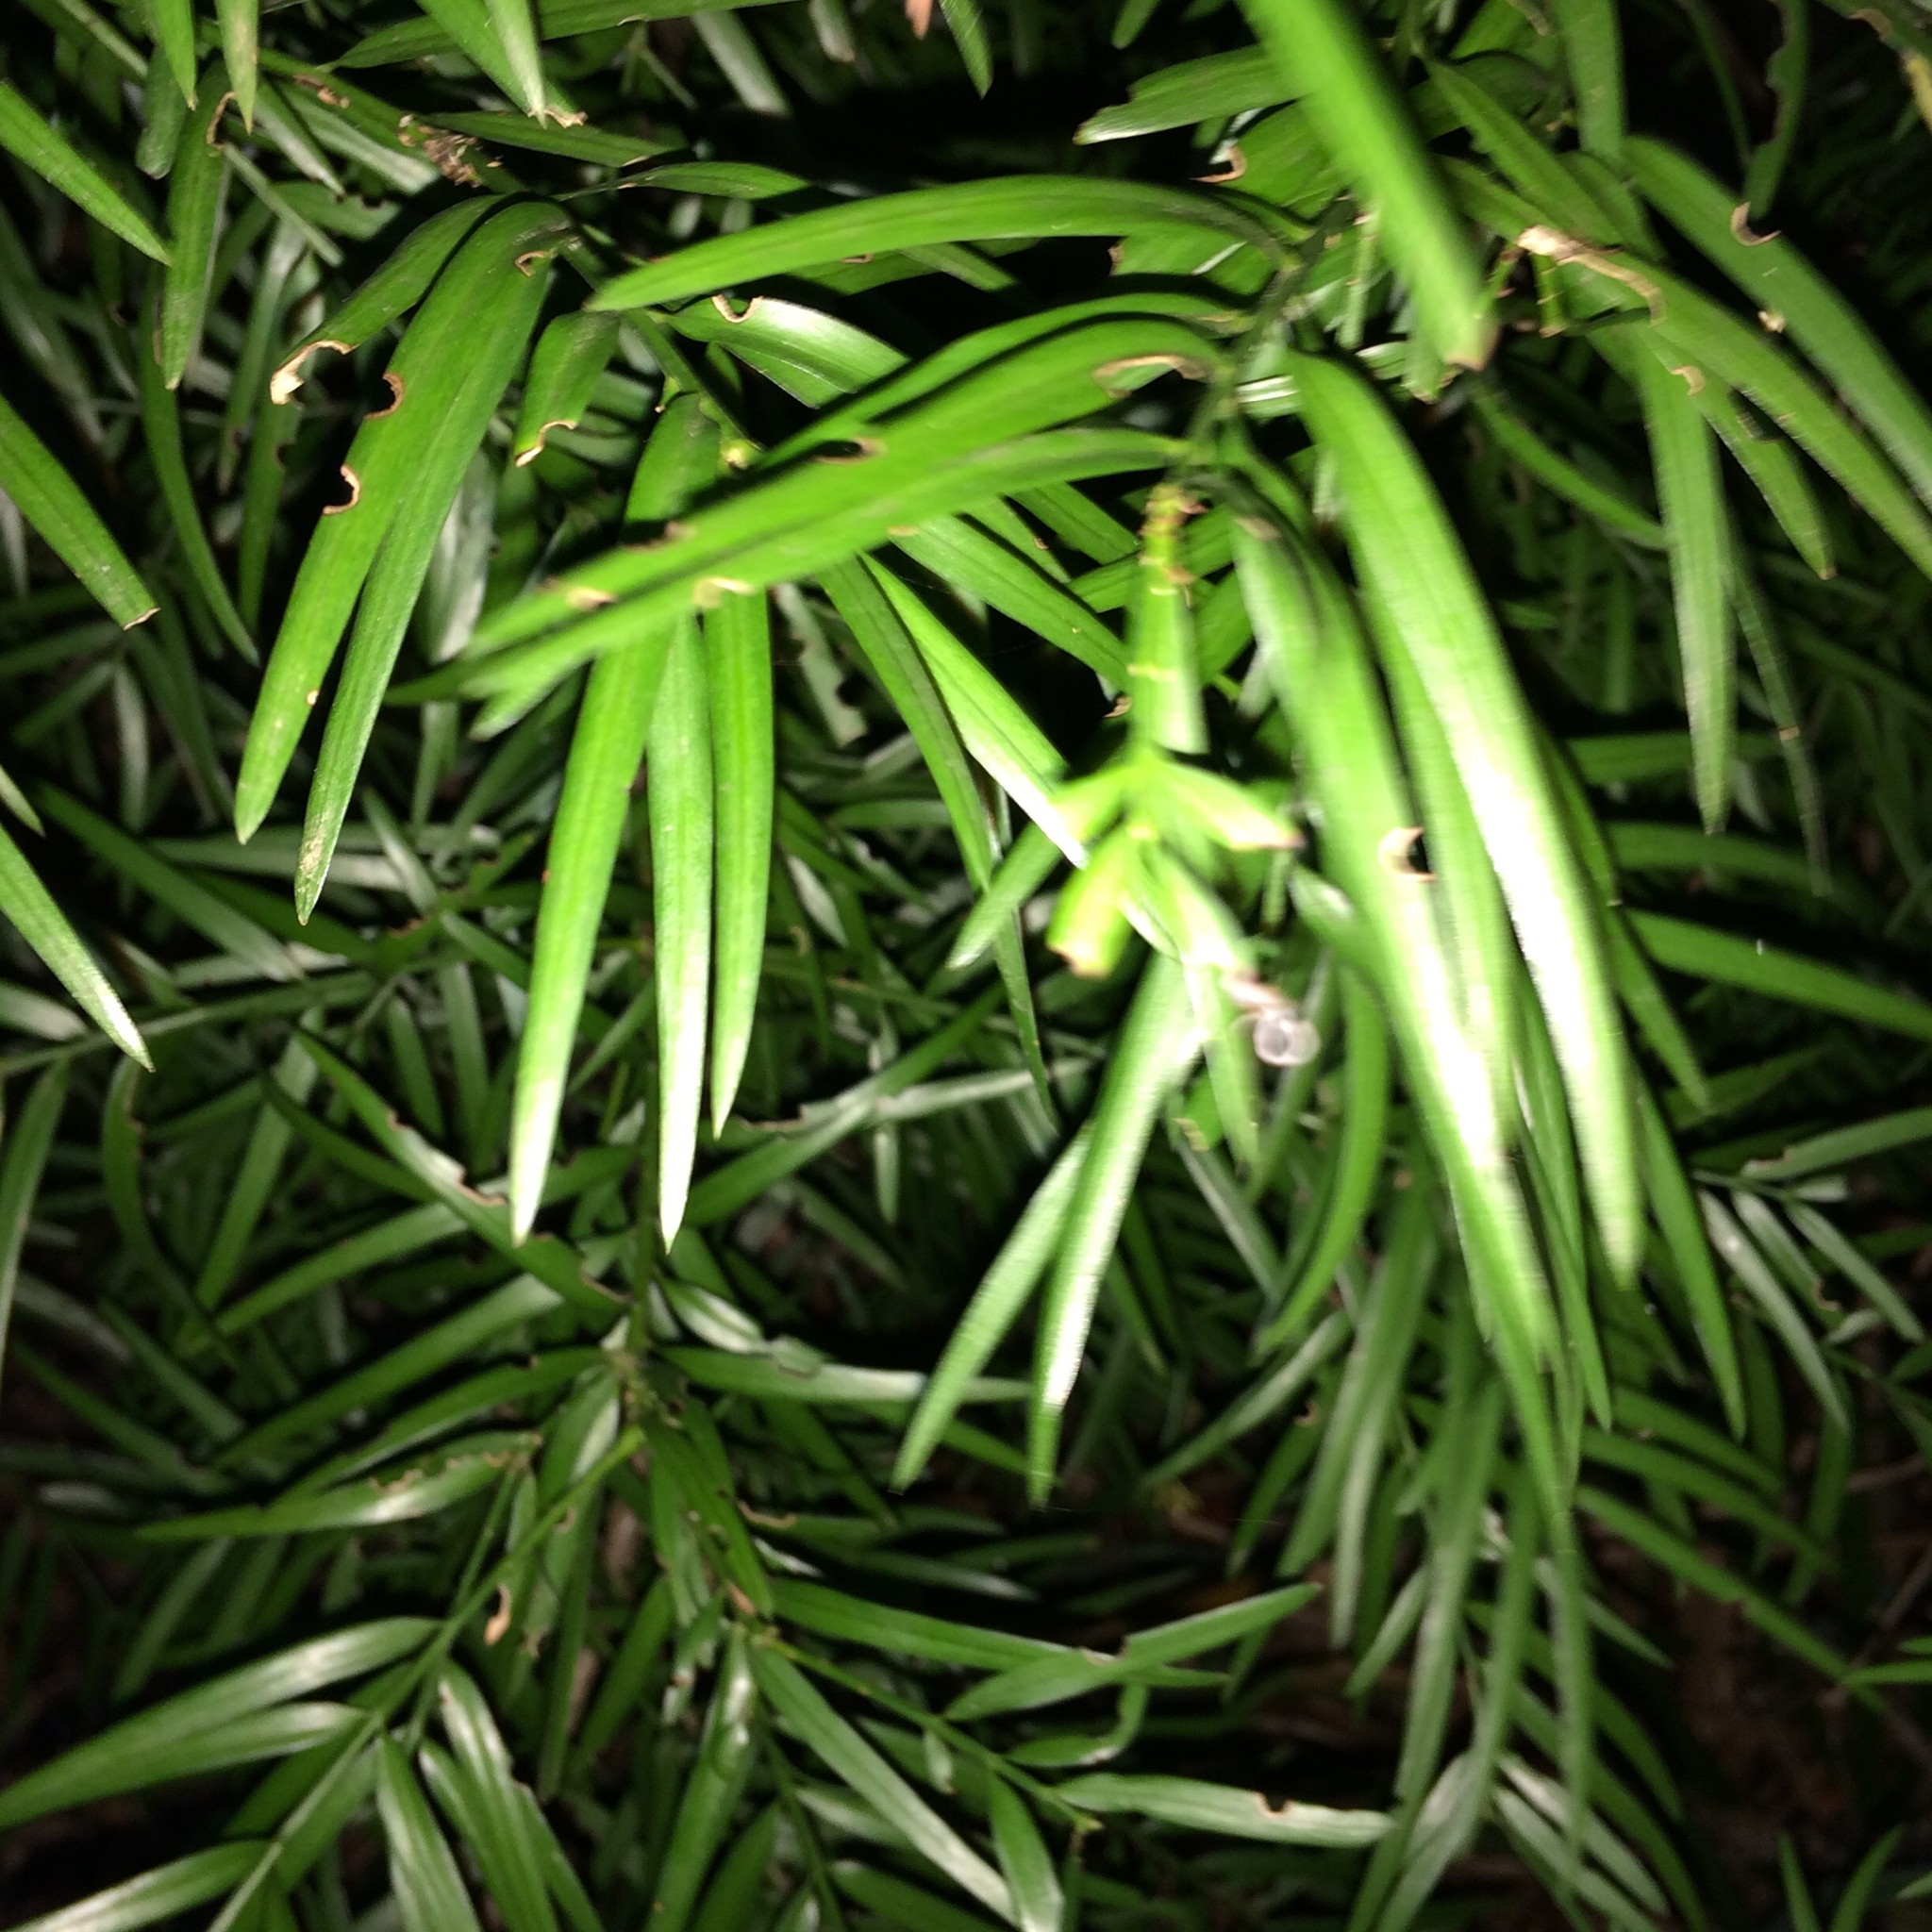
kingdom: Plantae
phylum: Tracheophyta
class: Pinopsida
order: Pinales
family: Podocarpaceae
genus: Afrocarpus
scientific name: Afrocarpus falcatus
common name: Bastard yellowwood
